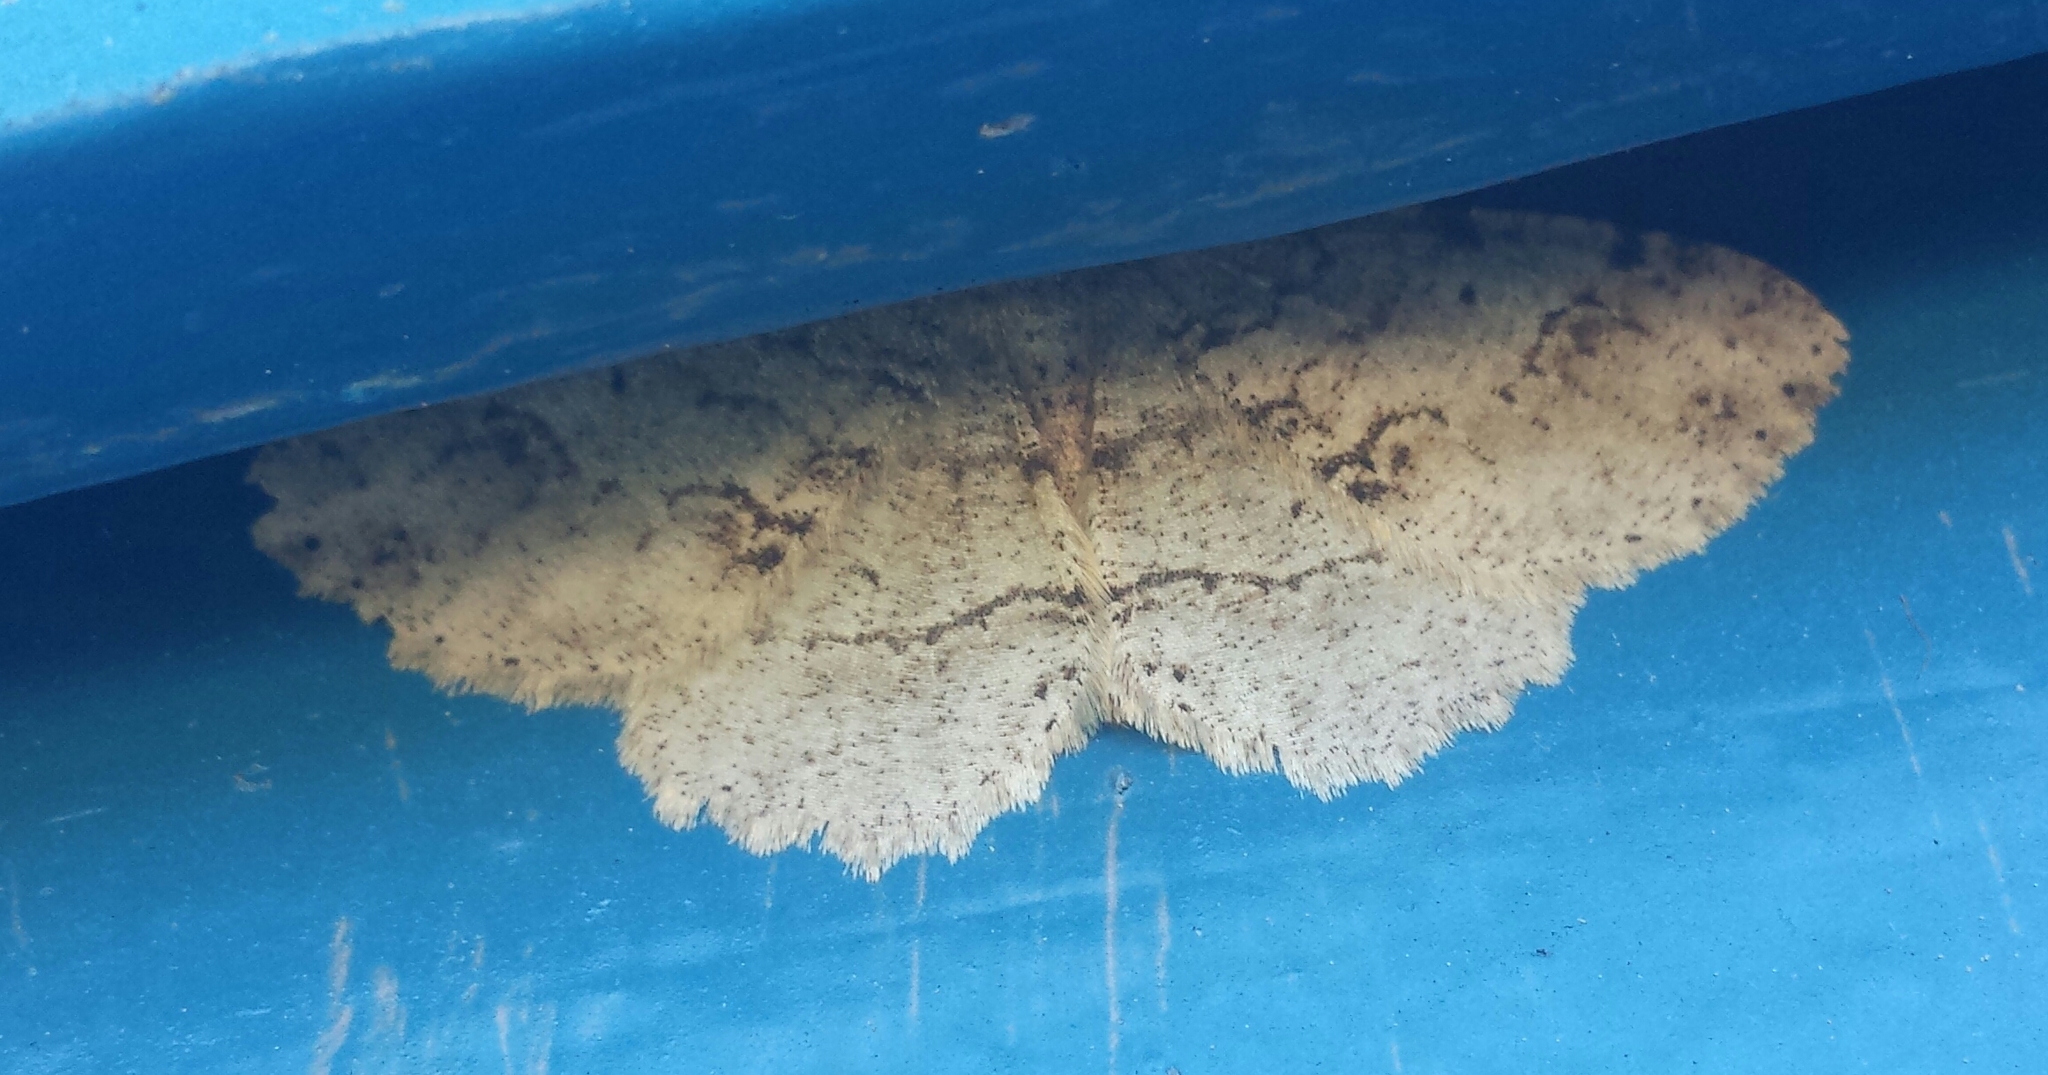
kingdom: Animalia
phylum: Arthropoda
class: Insecta
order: Lepidoptera
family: Geometridae
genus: Melanolophia
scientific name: Melanolophia signataria
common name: Signate melanolophia
